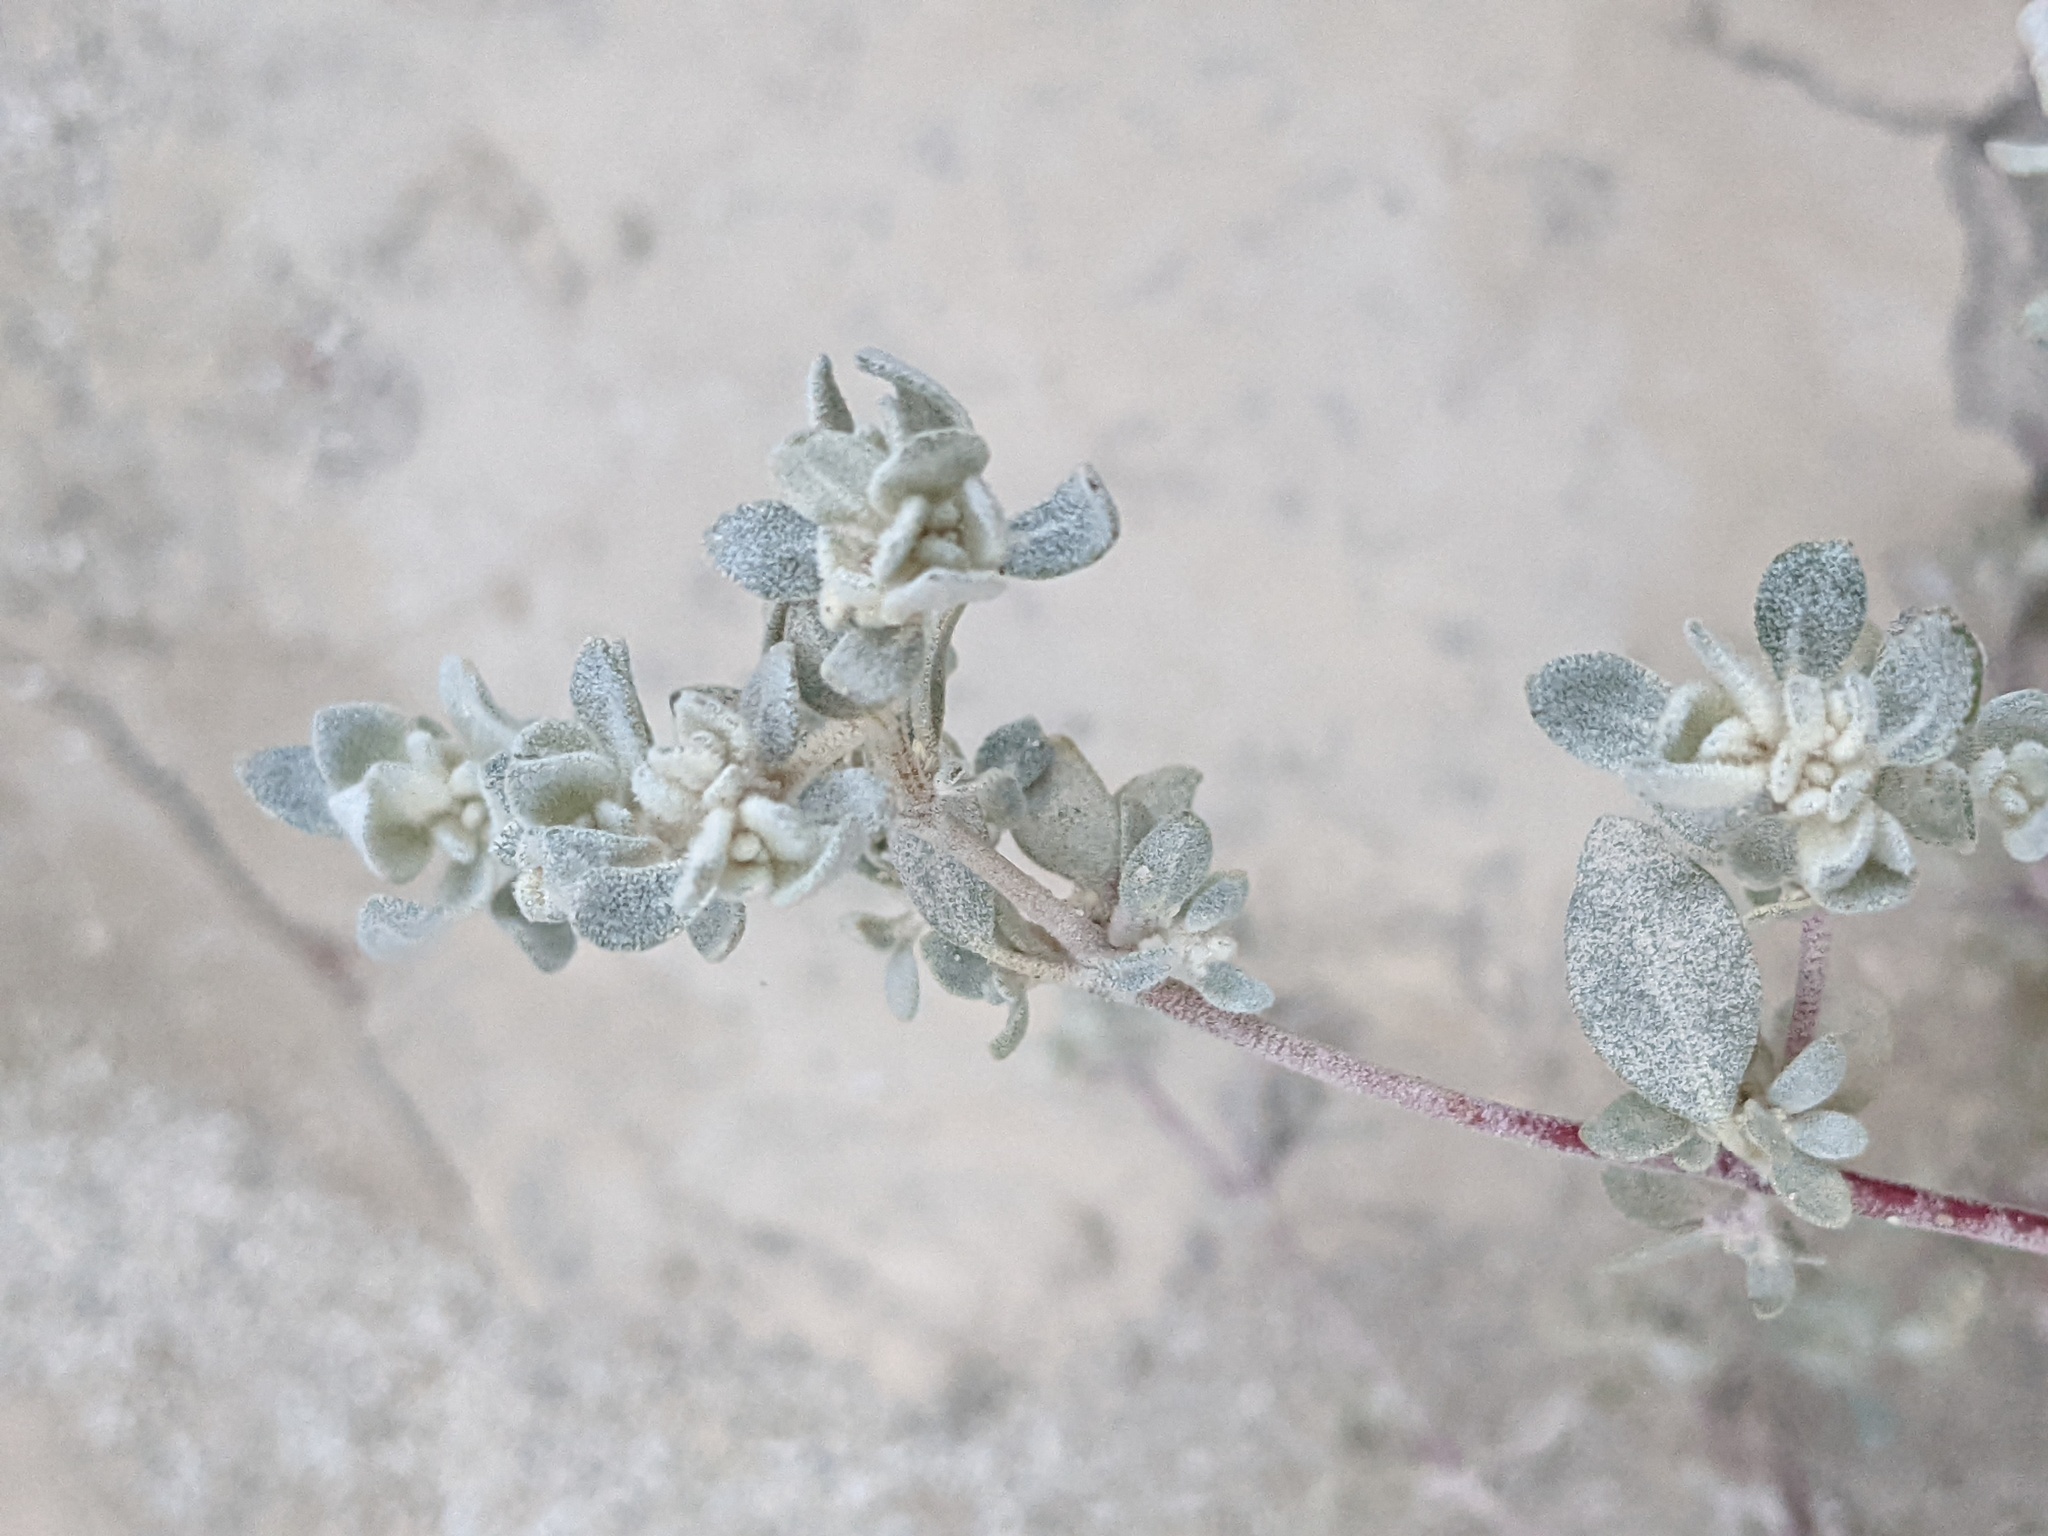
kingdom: Plantae
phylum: Tracheophyta
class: Magnoliopsida
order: Caryophyllales
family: Amaranthaceae
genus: Tidestromia
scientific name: Tidestromia suffruticosa
